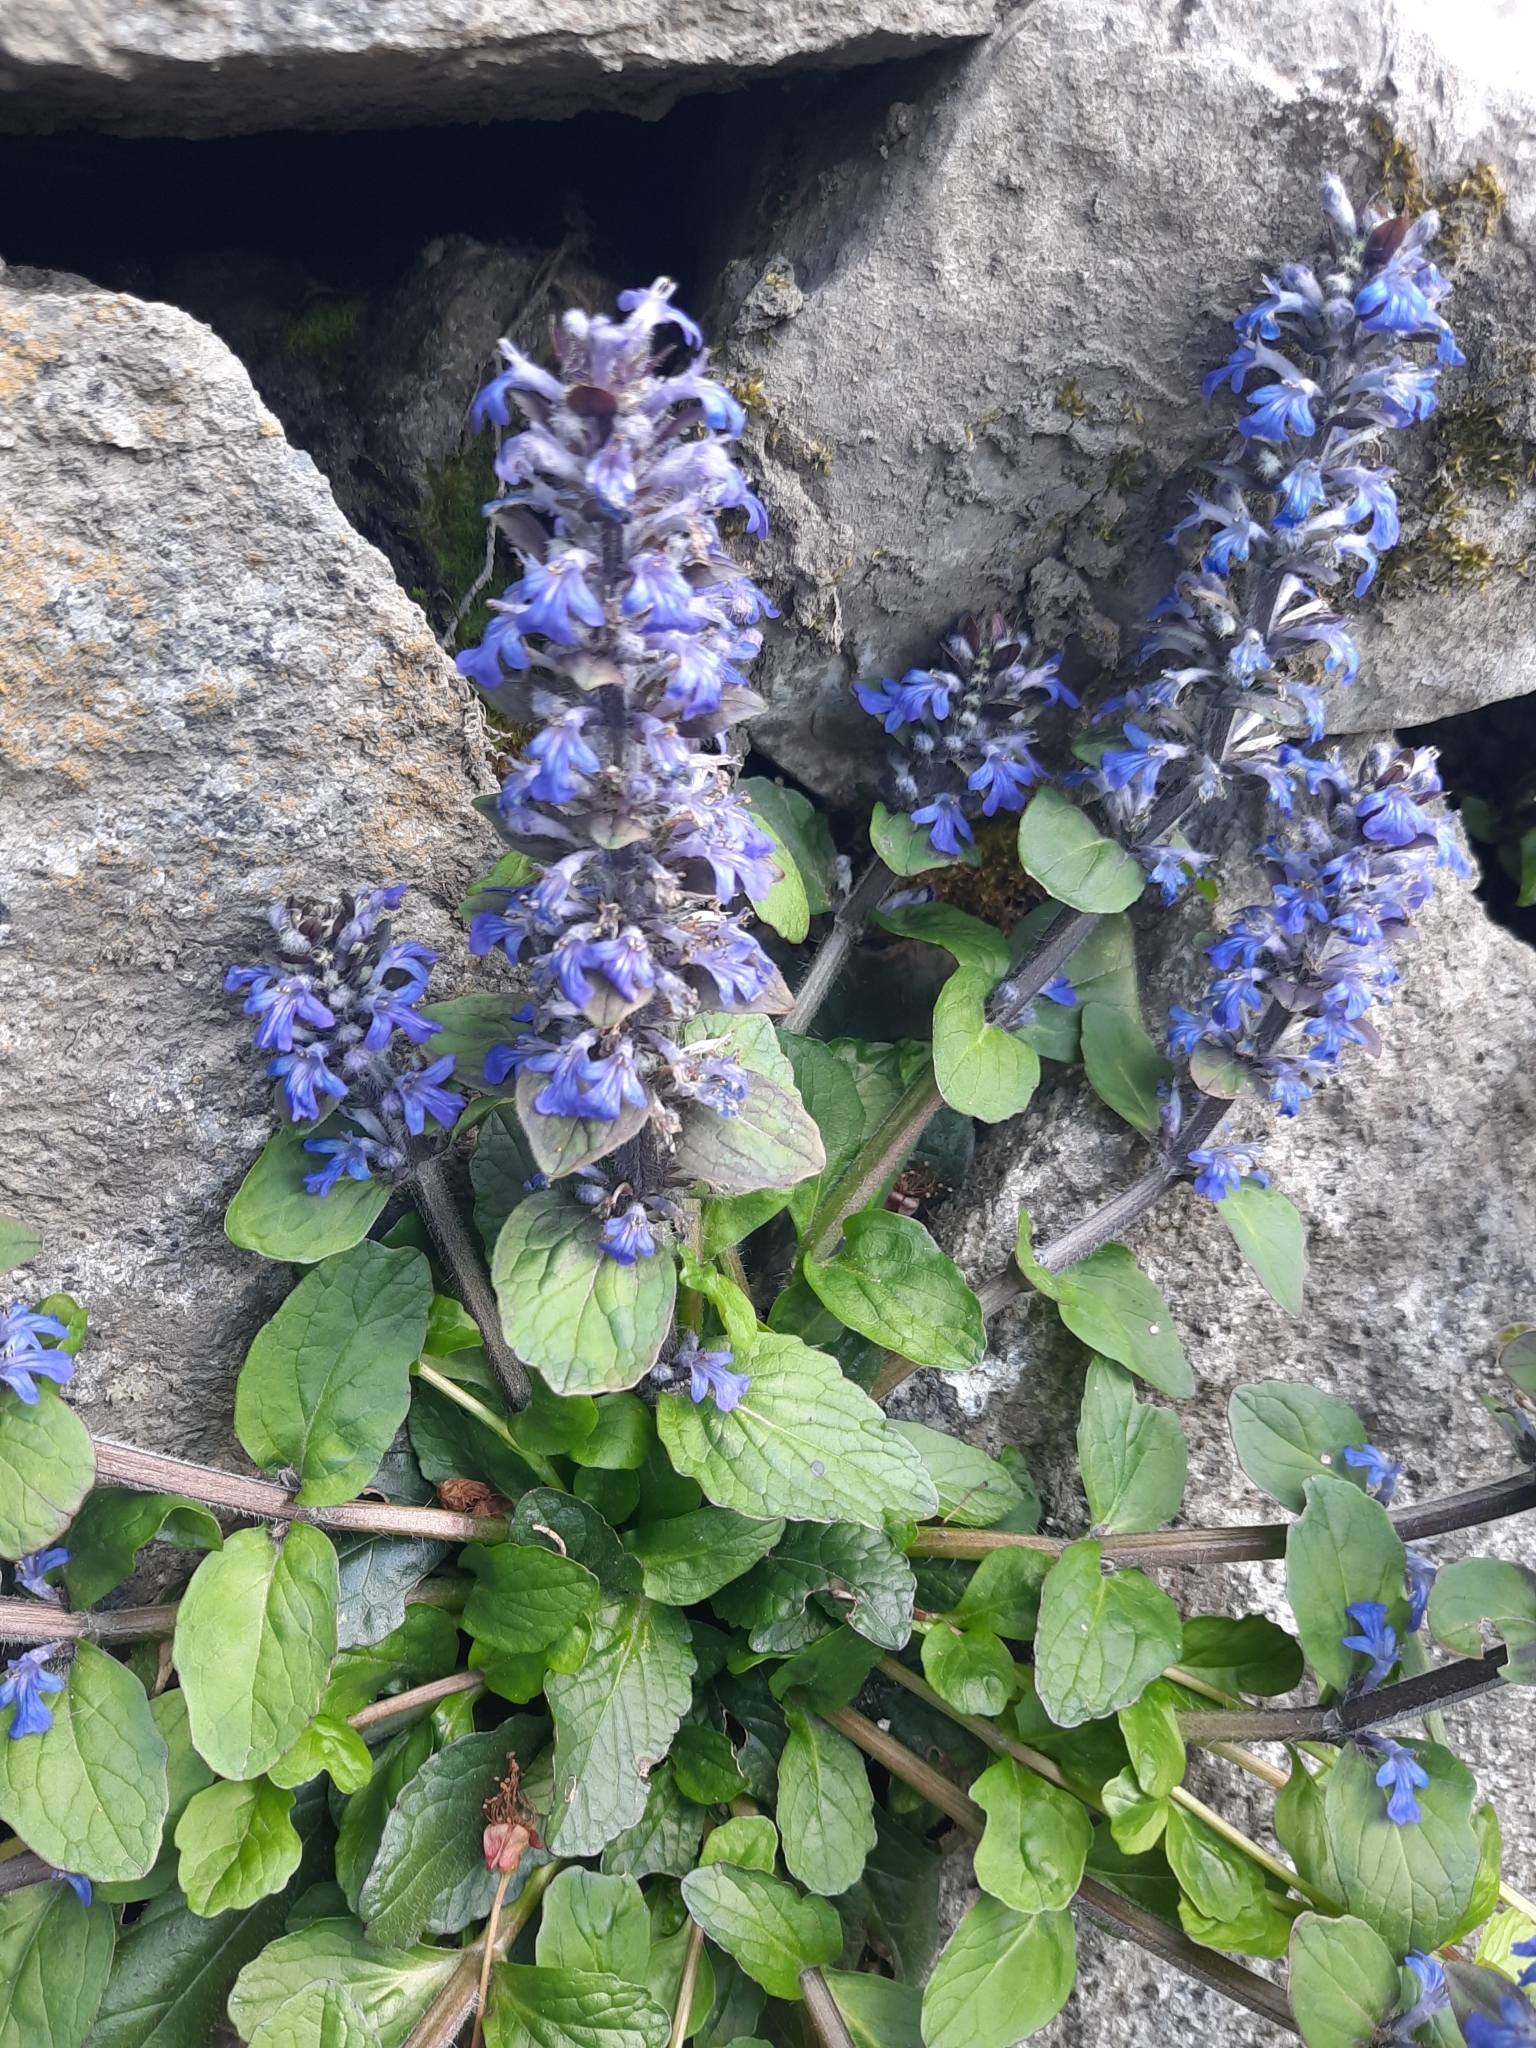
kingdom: Plantae
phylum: Tracheophyta
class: Magnoliopsida
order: Lamiales
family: Lamiaceae
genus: Ajuga
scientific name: Ajuga reptans
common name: Bugle
